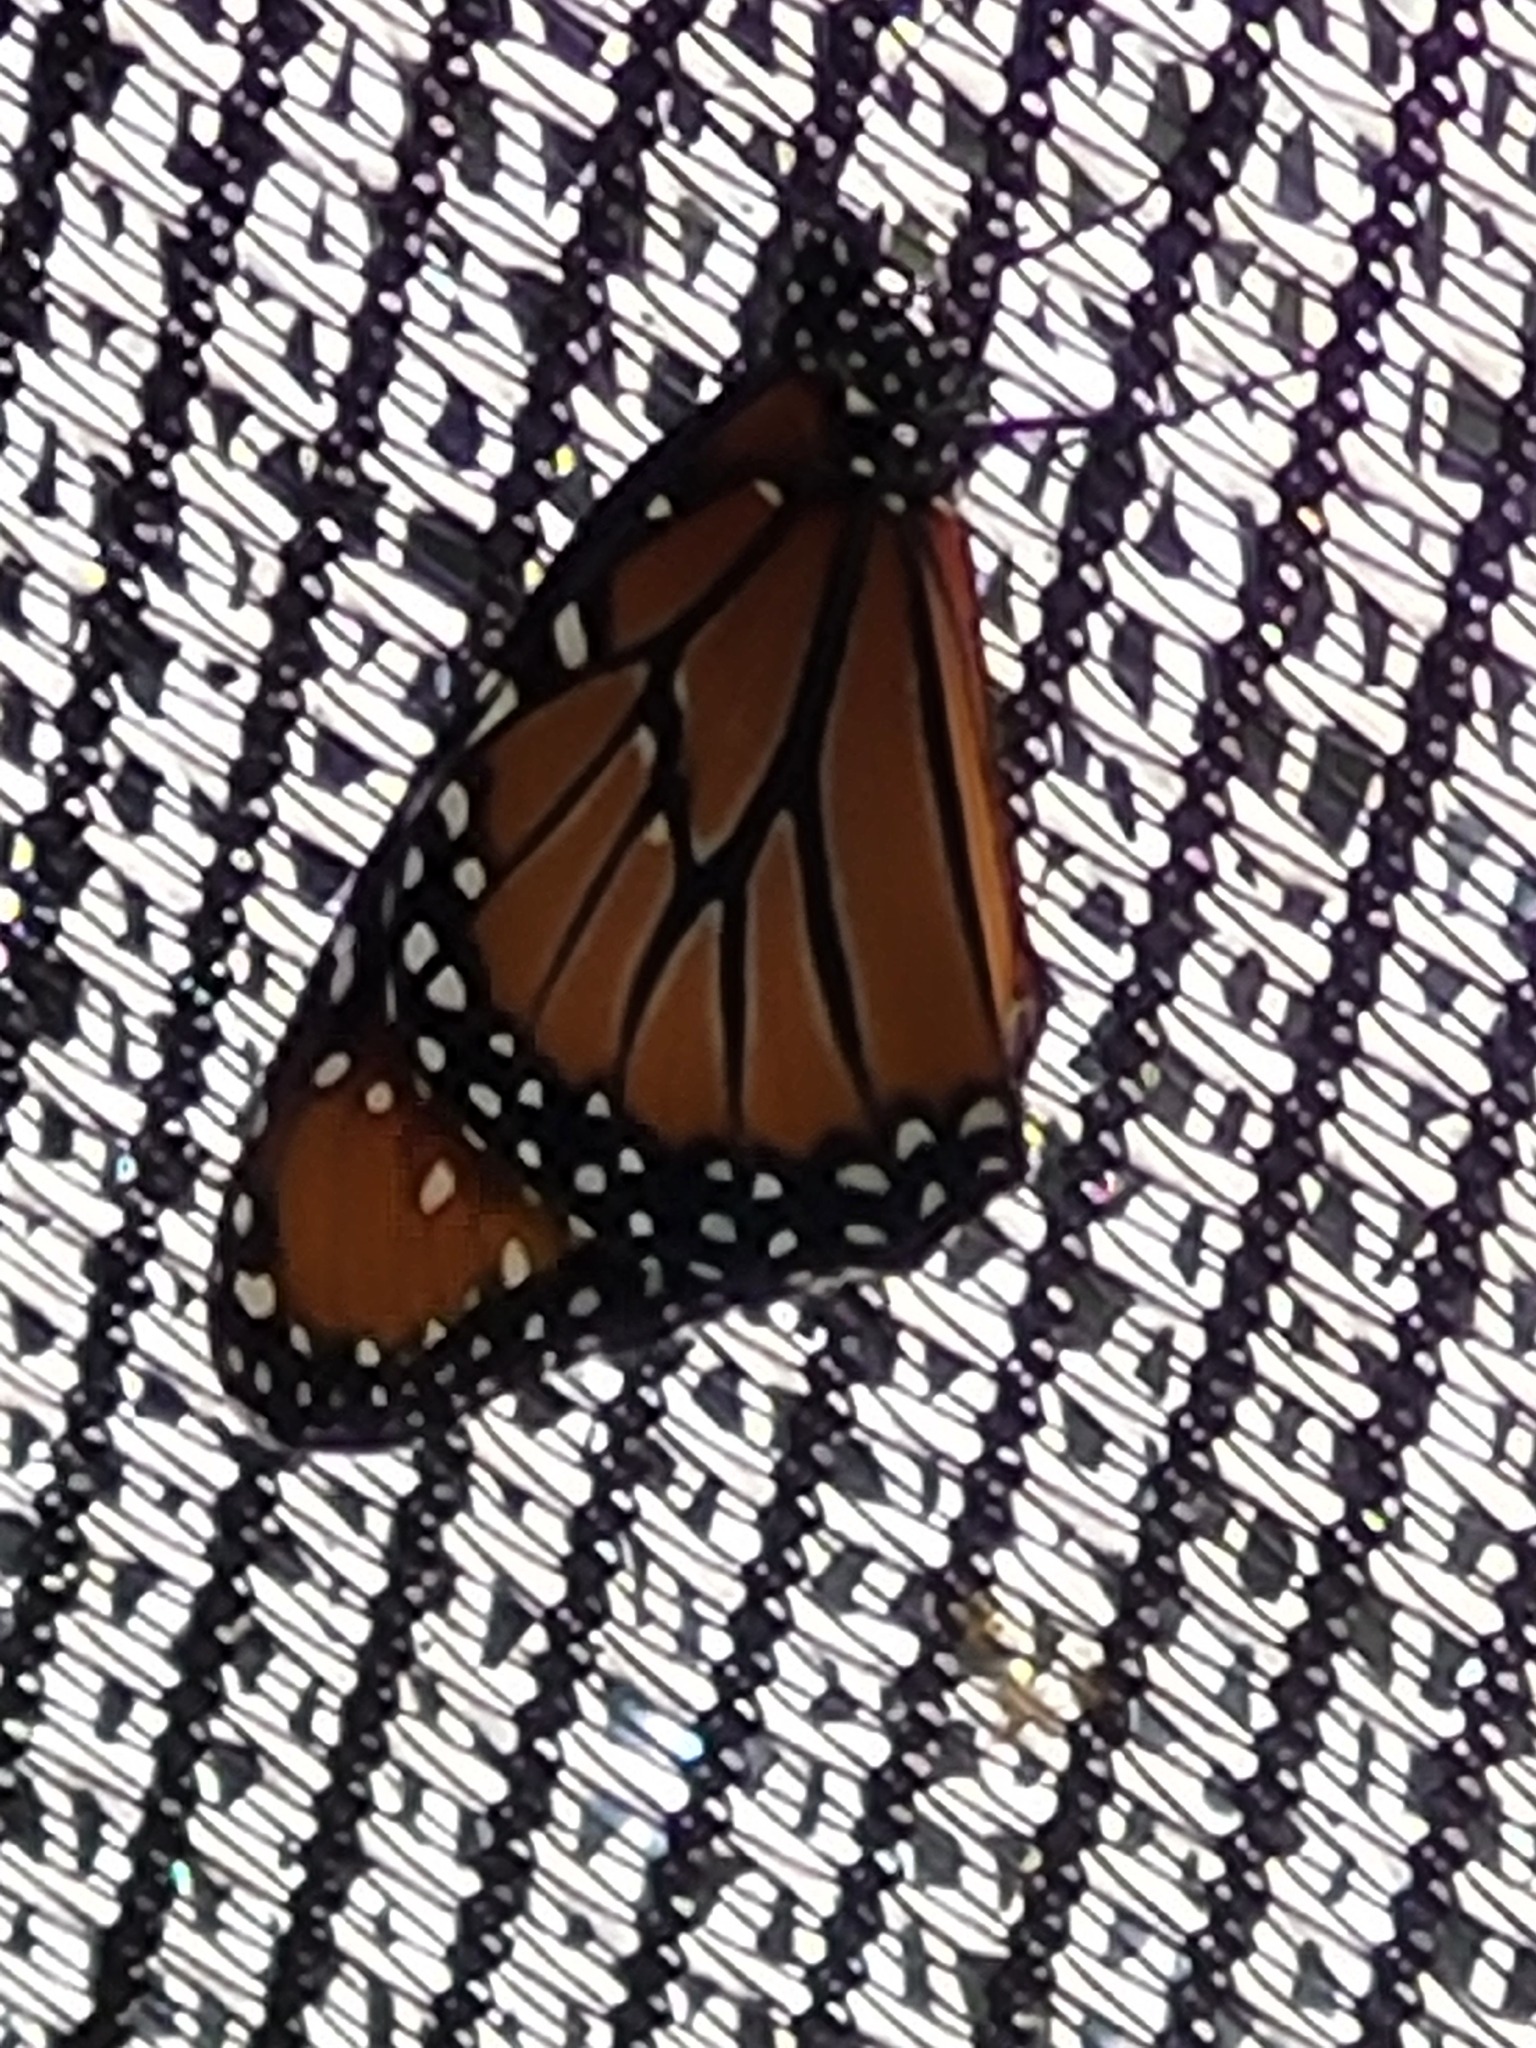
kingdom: Animalia
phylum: Arthropoda
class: Insecta
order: Lepidoptera
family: Nymphalidae
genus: Danaus
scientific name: Danaus gilippus
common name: Queen
